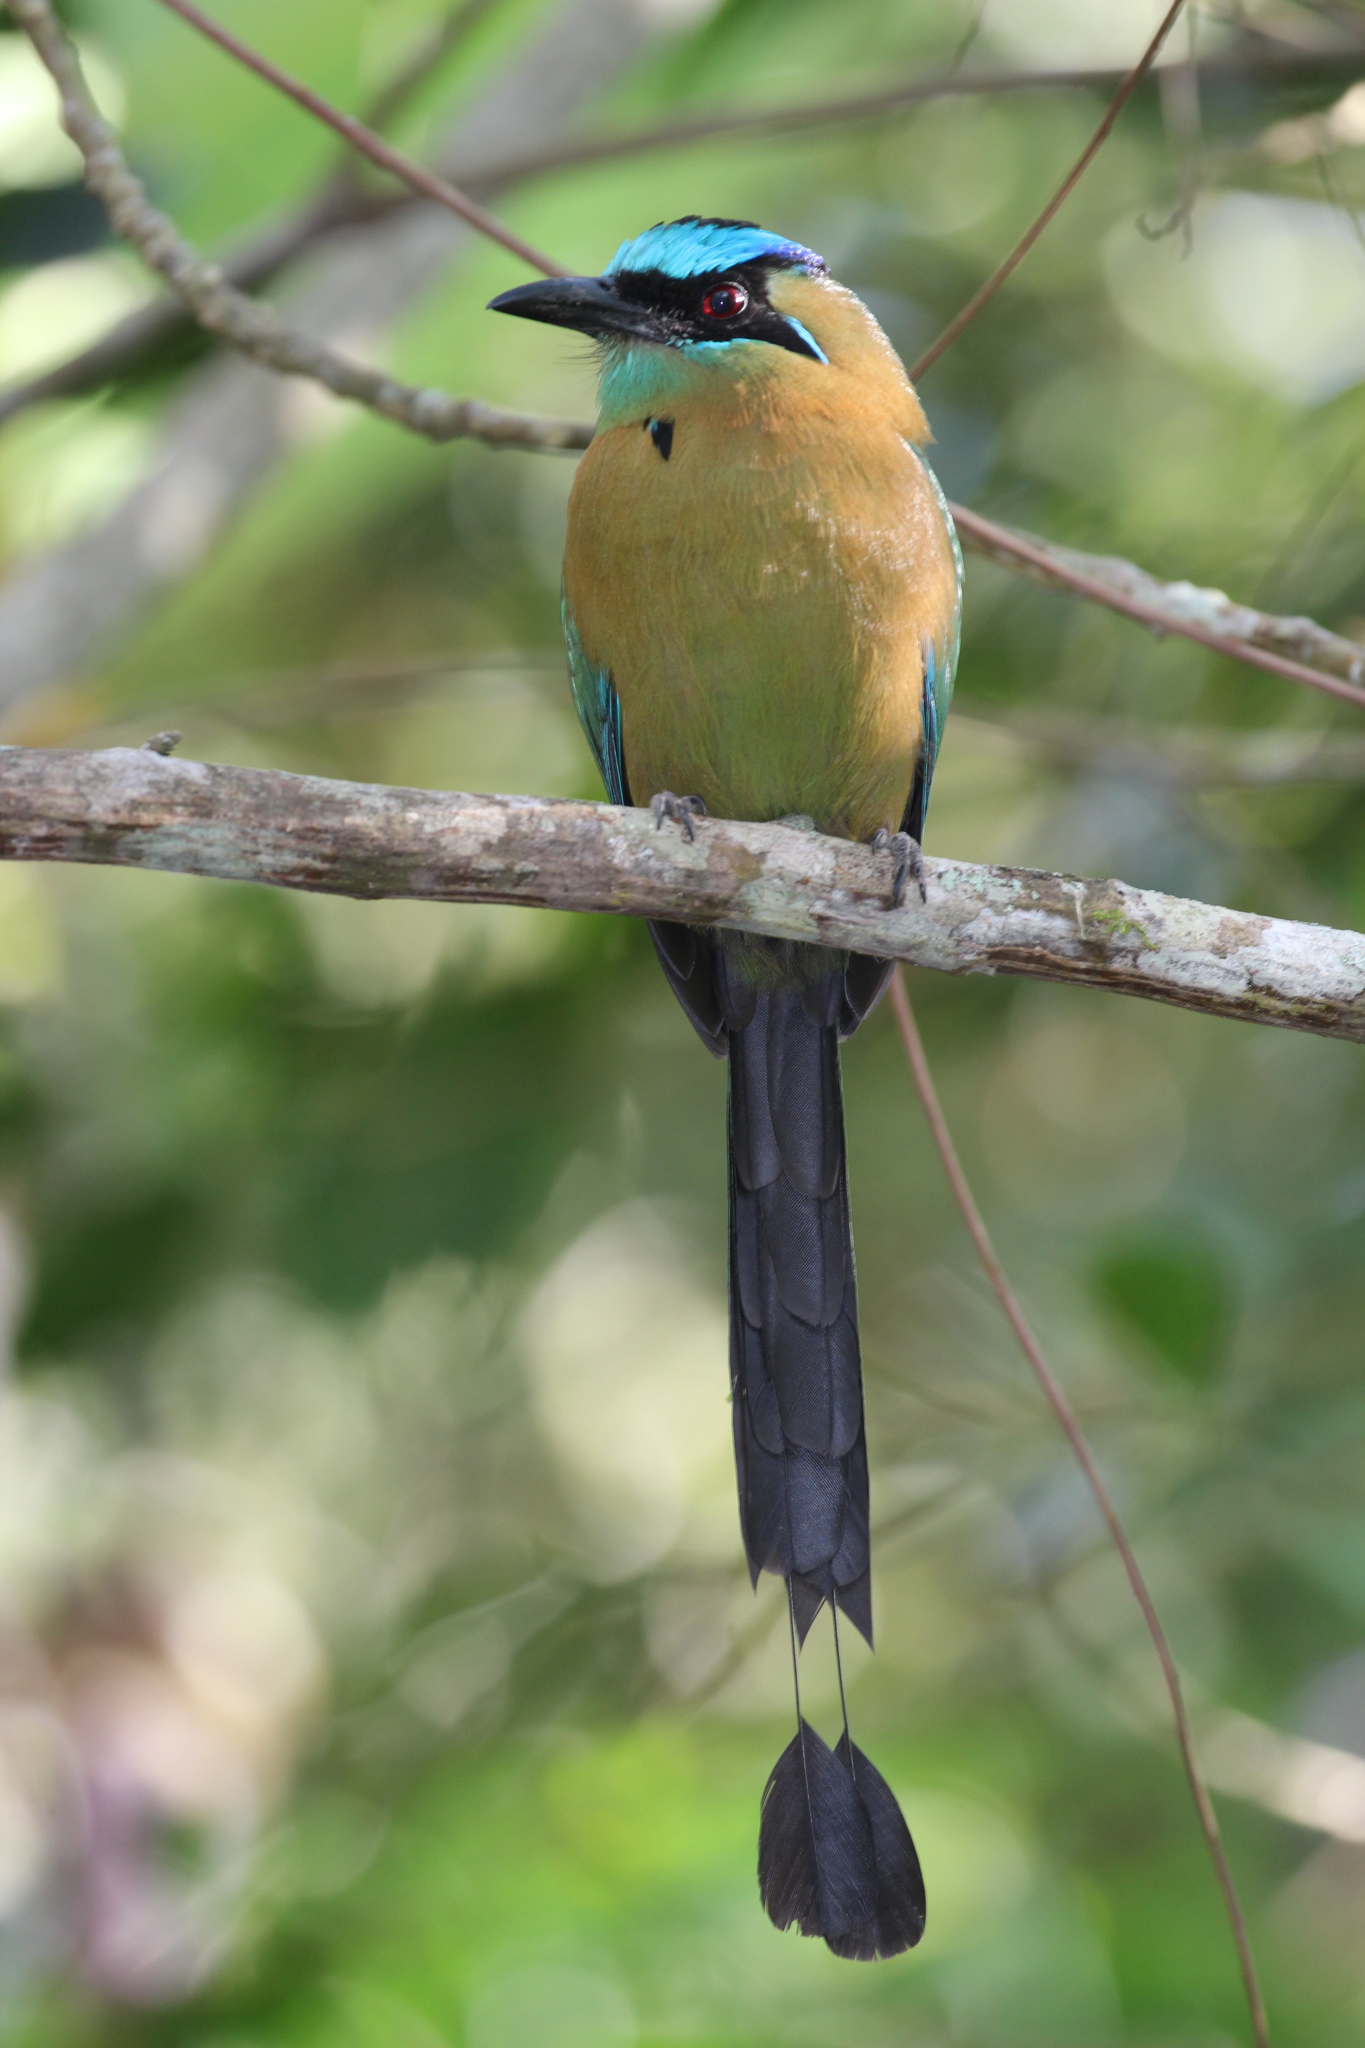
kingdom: Animalia
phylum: Chordata
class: Aves
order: Coraciiformes
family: Momotidae
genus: Momotus
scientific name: Momotus lessonii
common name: Lesson's motmot
